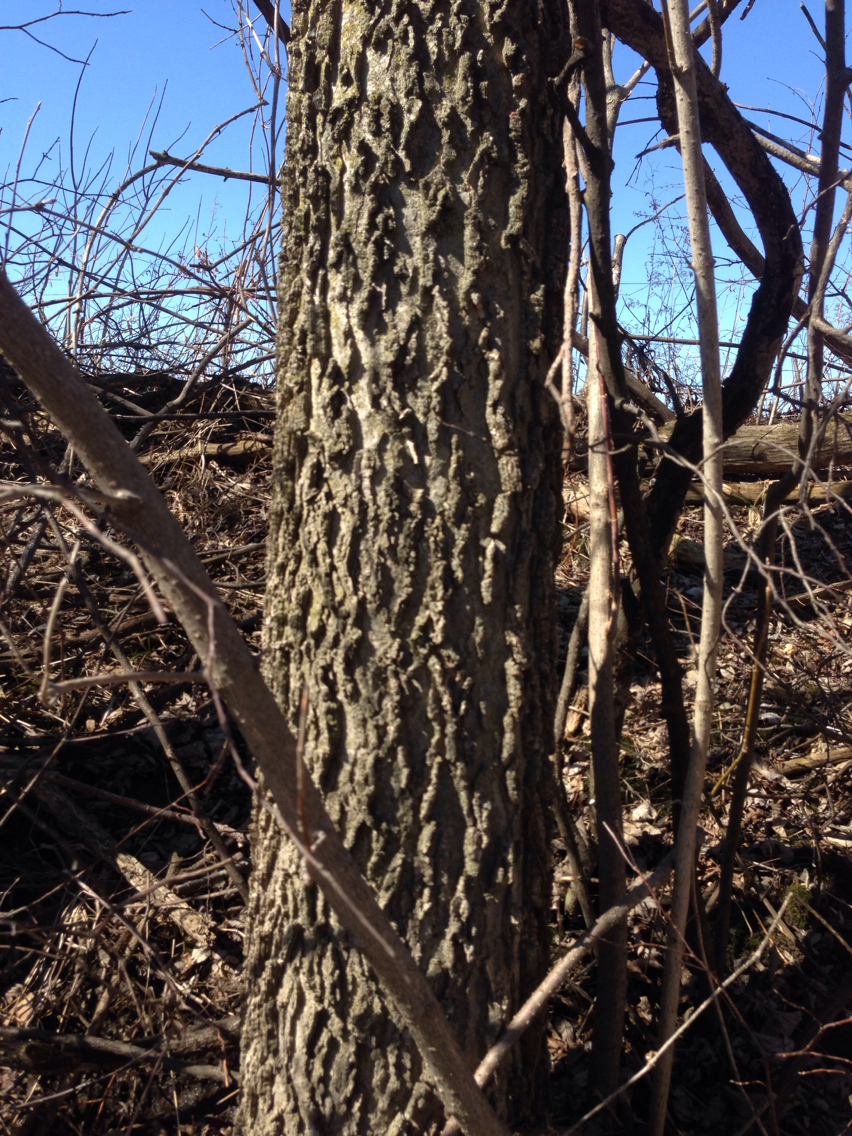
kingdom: Plantae
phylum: Tracheophyta
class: Magnoliopsida
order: Rosales
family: Cannabaceae
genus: Celtis
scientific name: Celtis occidentalis
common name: Common hackberry
